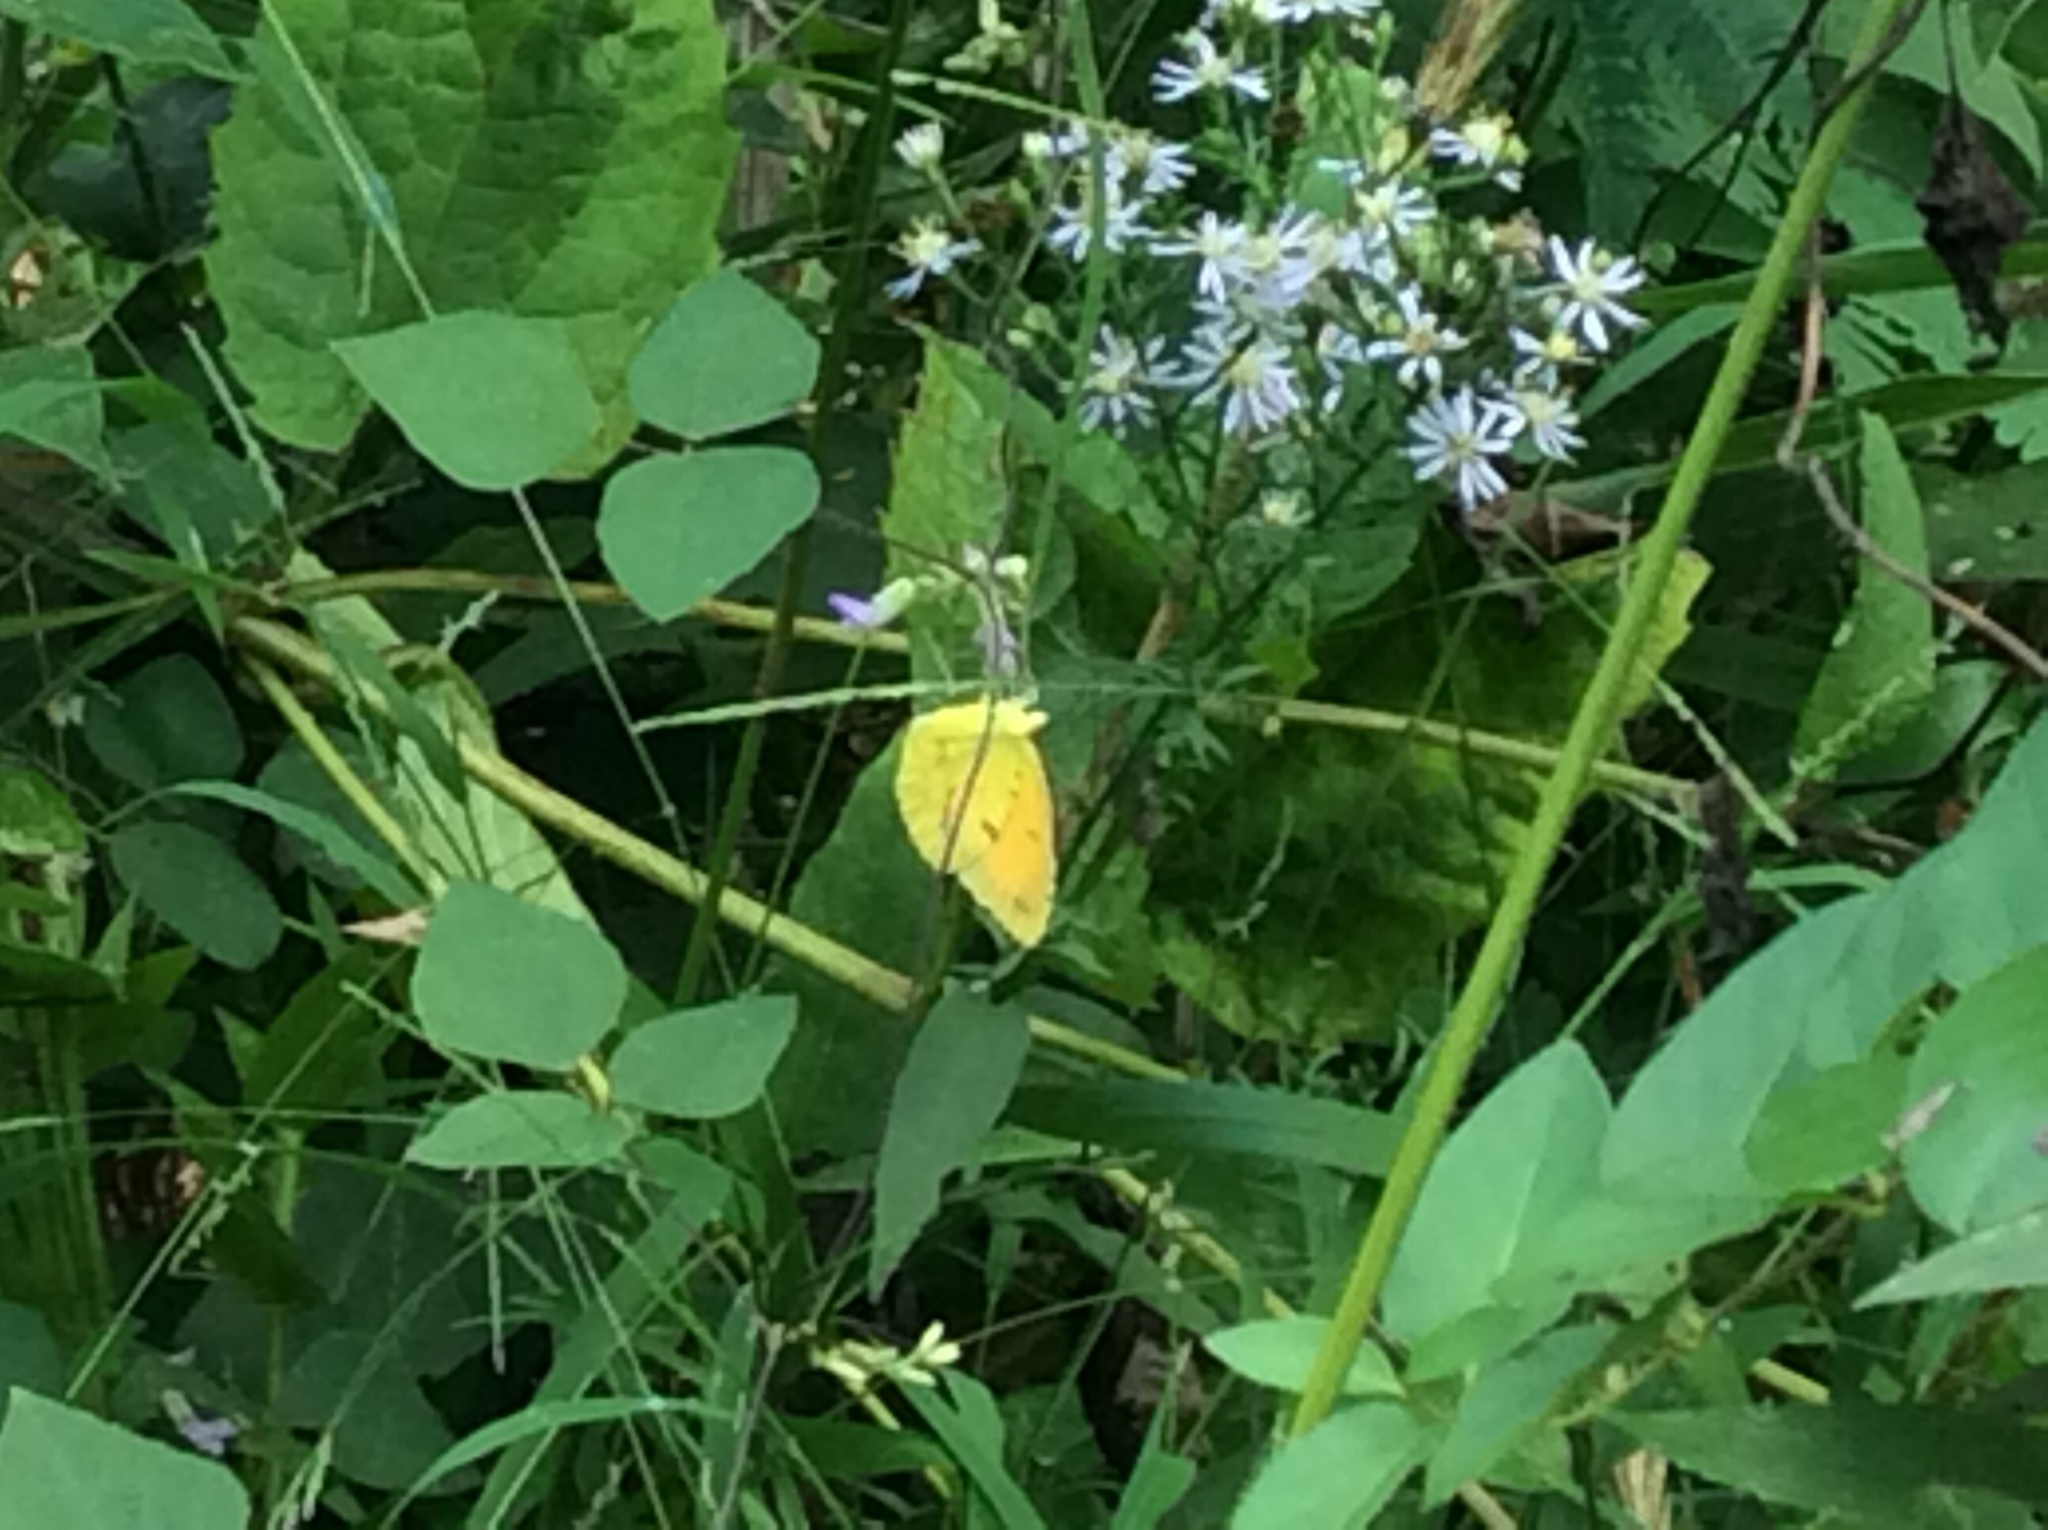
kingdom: Animalia
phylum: Arthropoda
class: Insecta
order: Lepidoptera
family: Pieridae
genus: Abaeis
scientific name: Abaeis nicippe
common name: Sleepy orange
